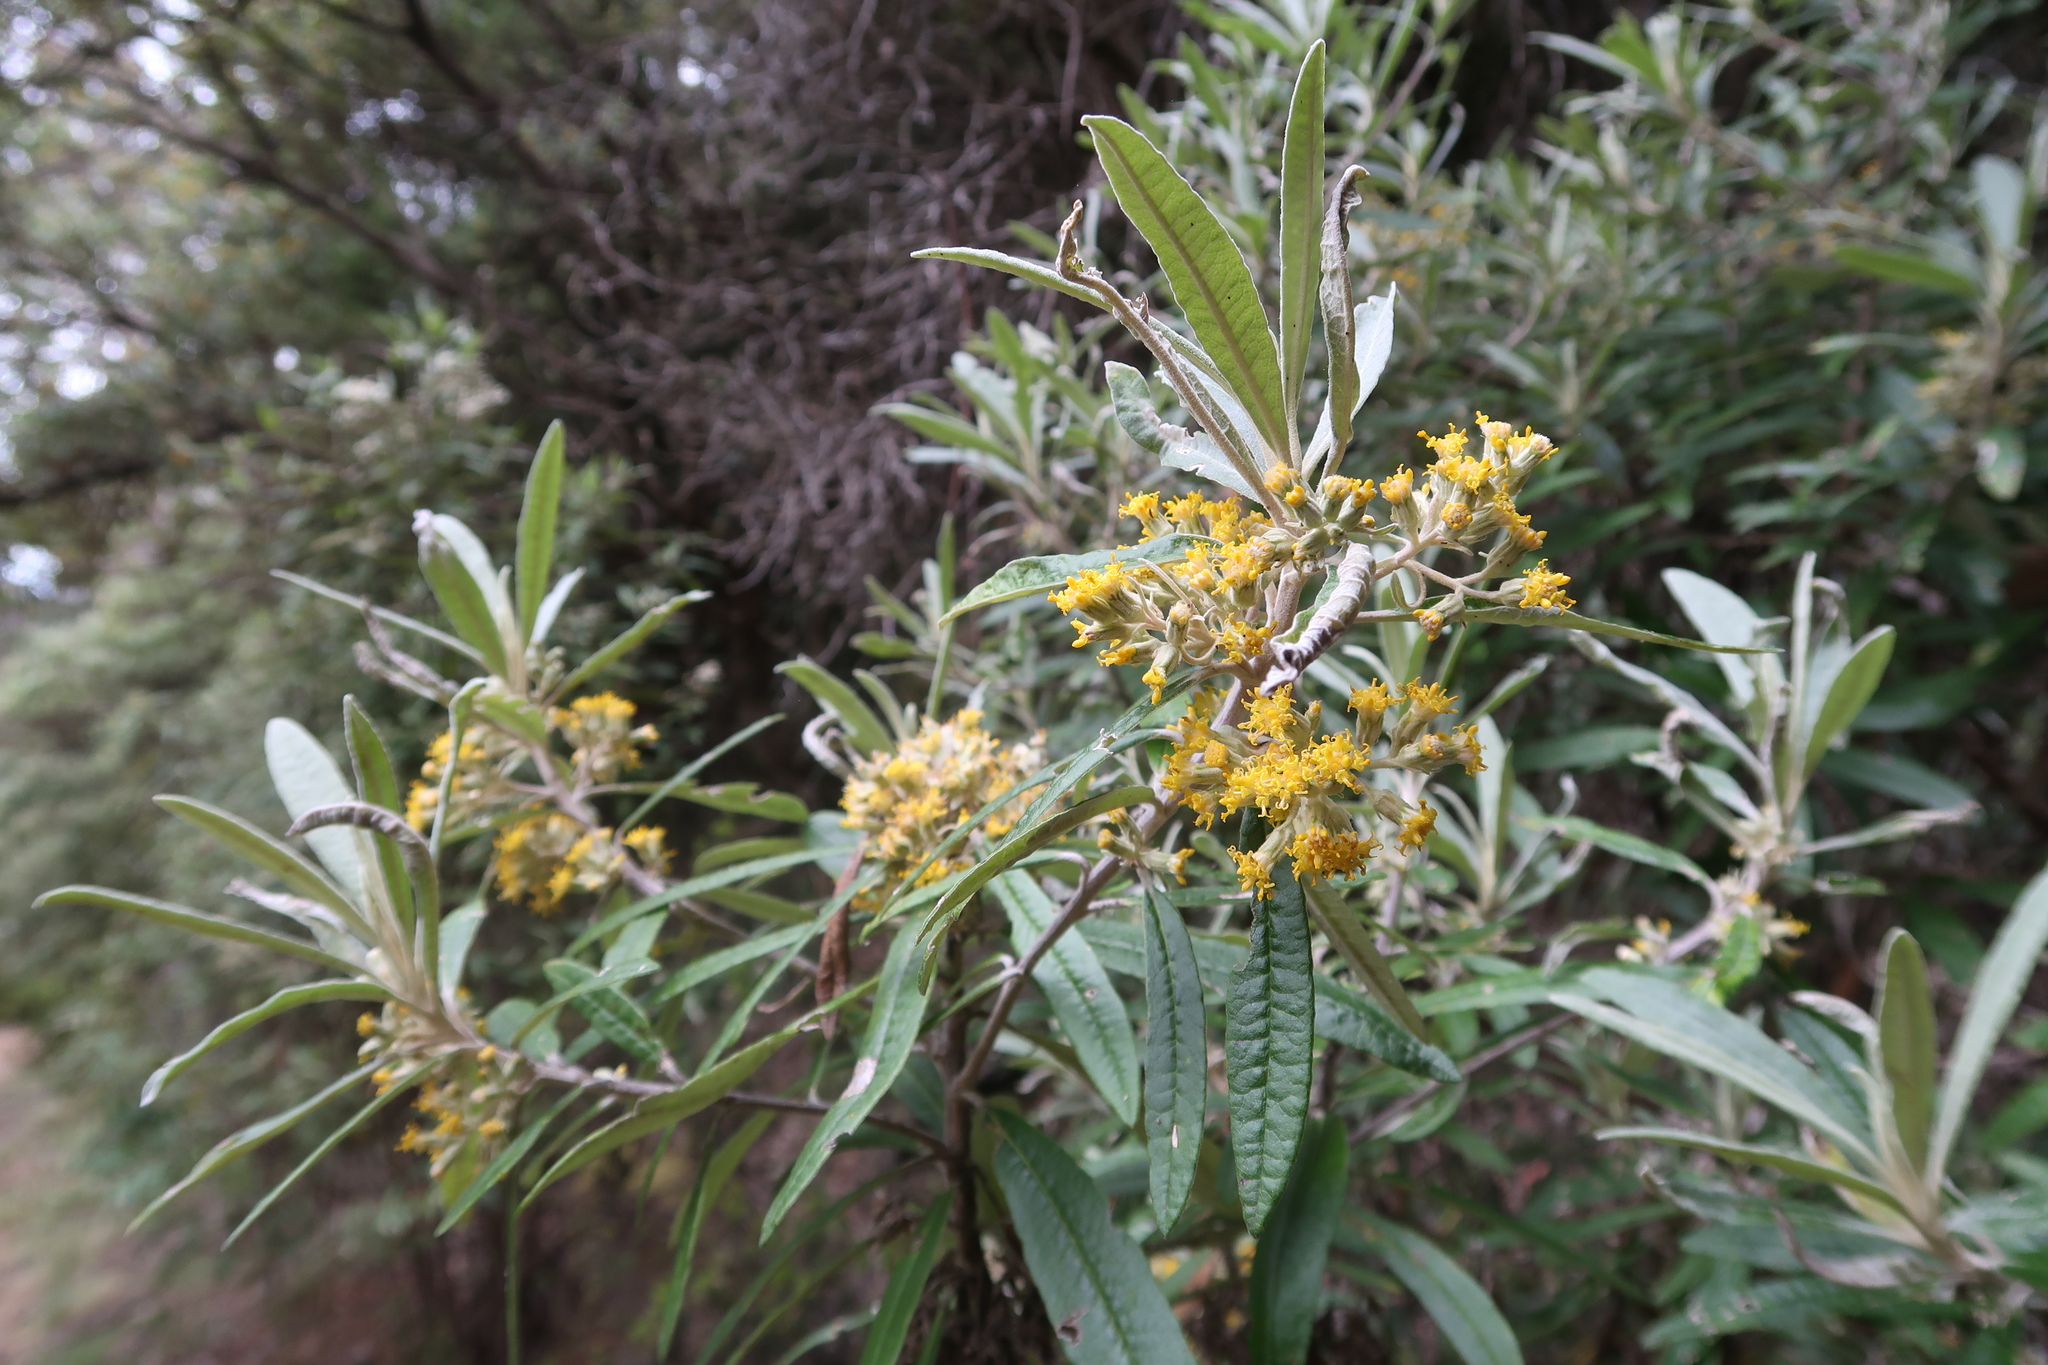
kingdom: Plantae
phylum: Tracheophyta
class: Magnoliopsida
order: Asterales
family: Asteraceae
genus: Bedfordia
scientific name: Bedfordia salicina
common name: Blanketleaf
